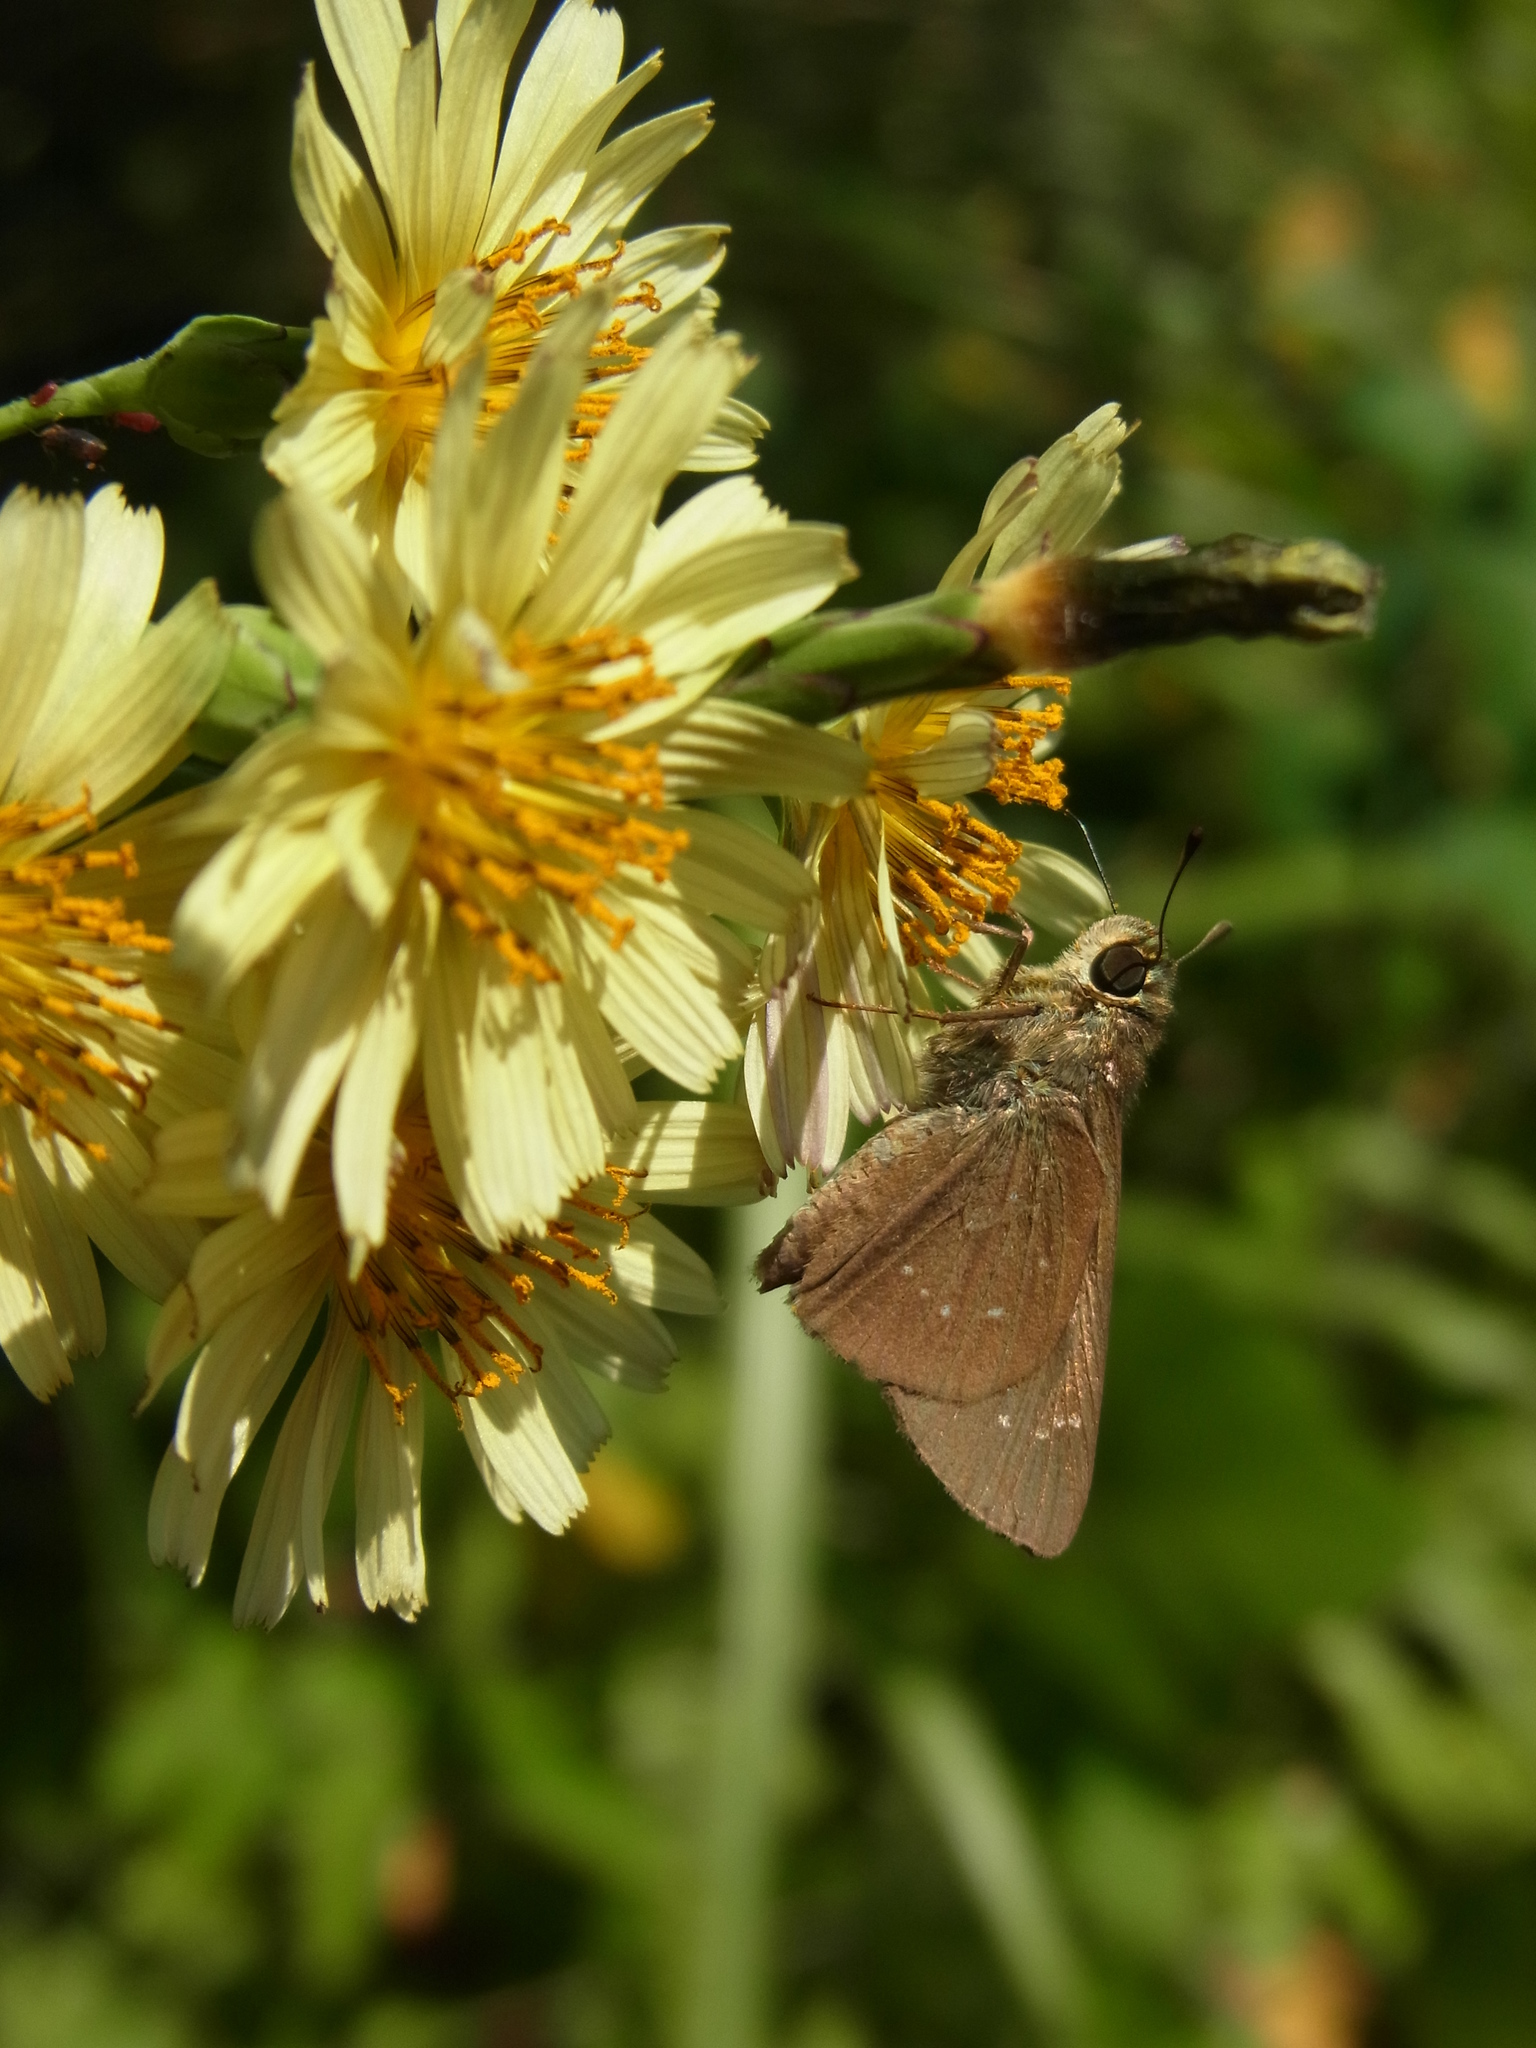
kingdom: Animalia
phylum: Arthropoda
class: Insecta
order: Lepidoptera
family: Hesperiidae
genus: Pelopidas
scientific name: Pelopidas mathias
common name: Black-branded swift
